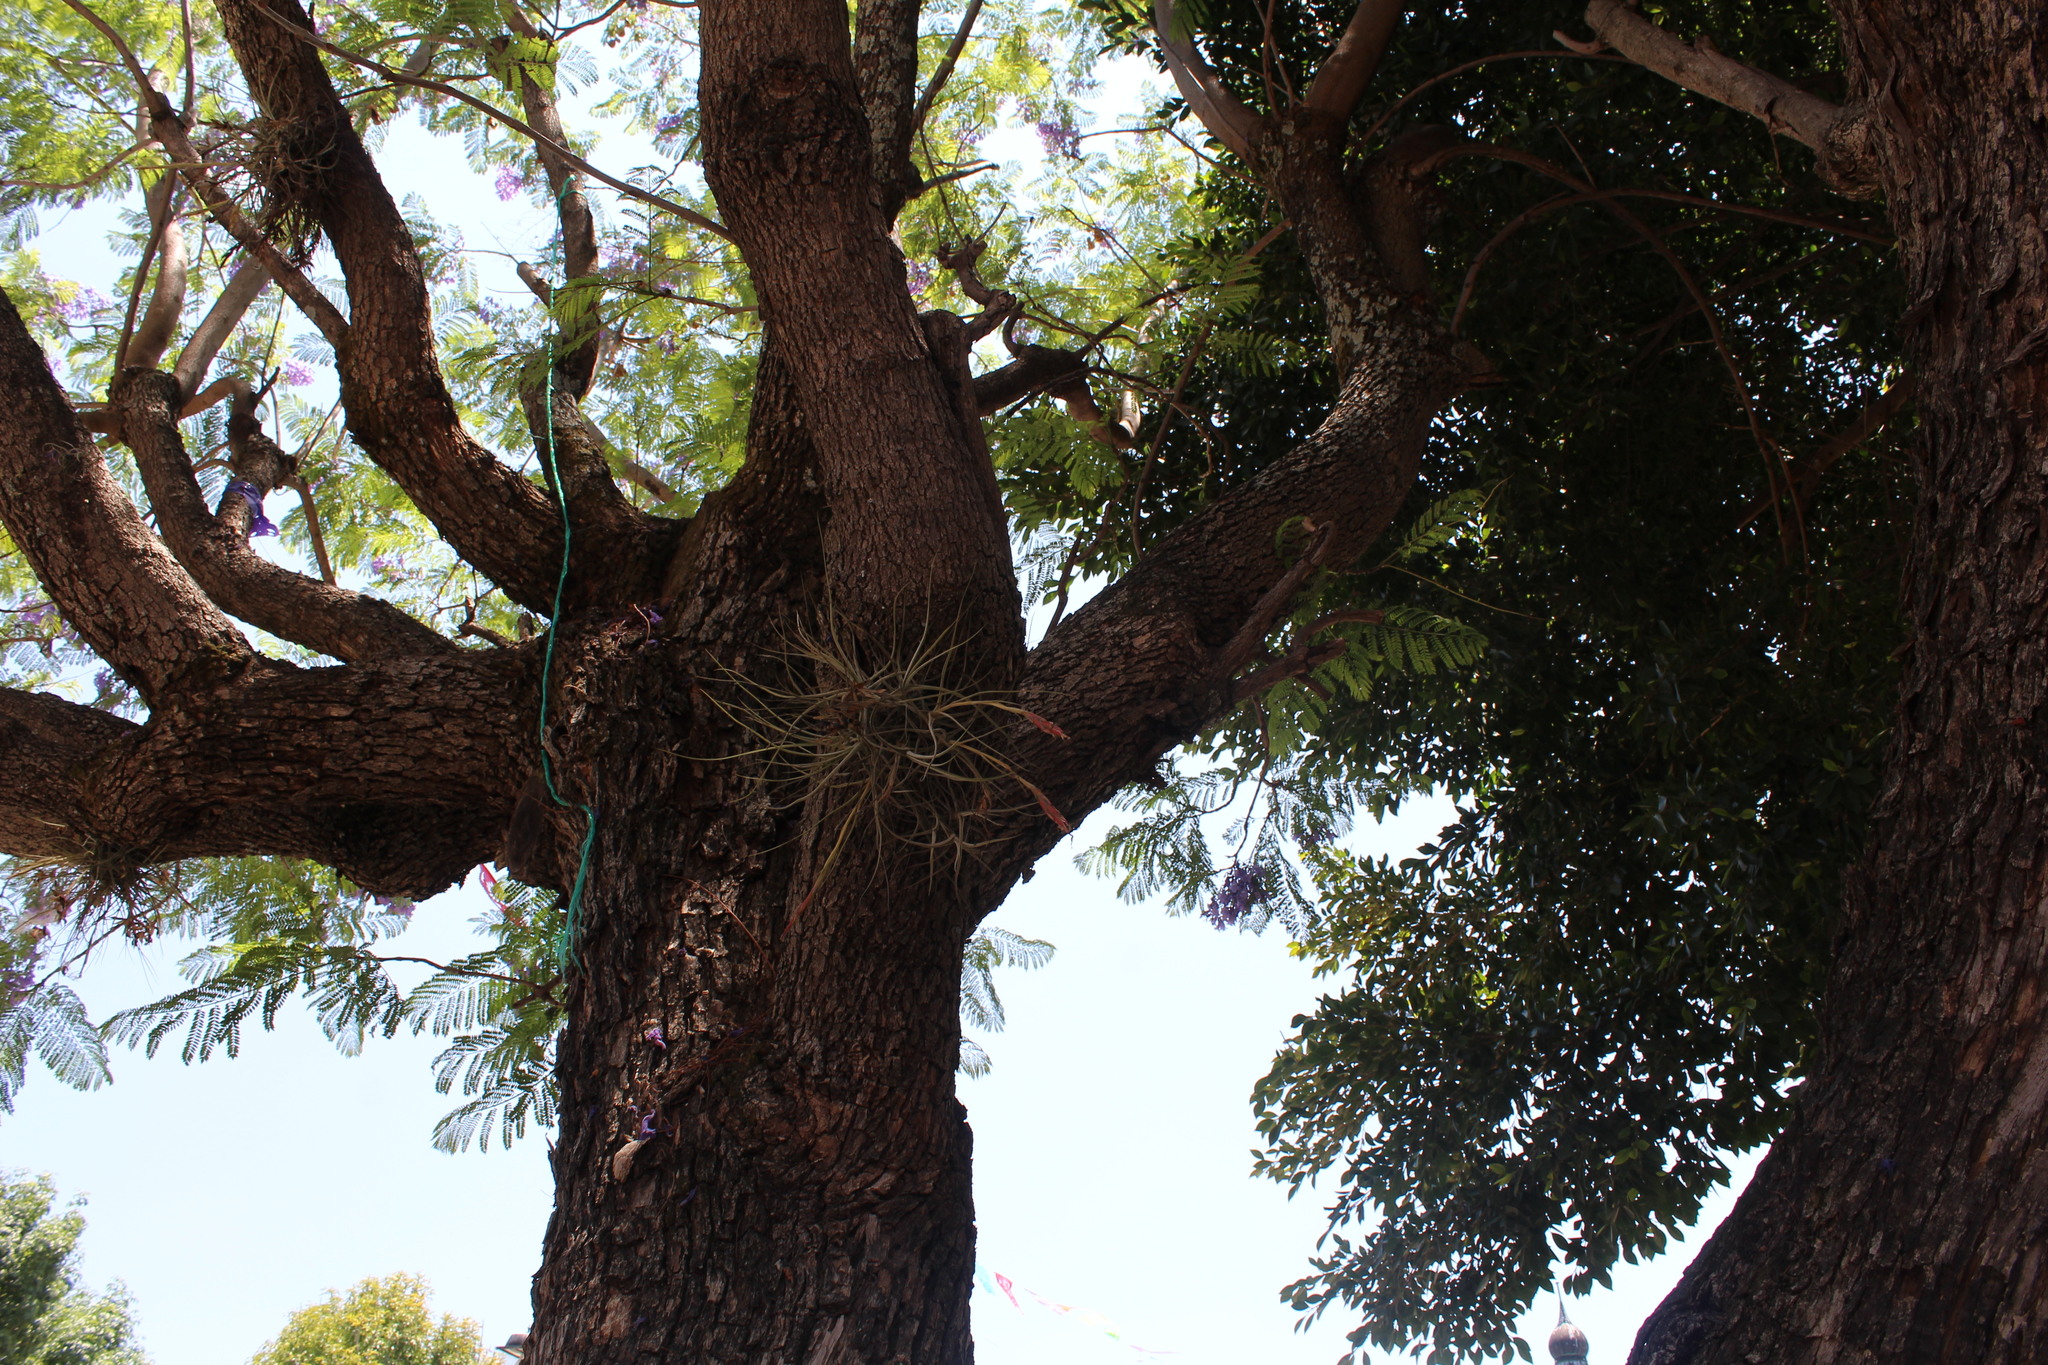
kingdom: Plantae
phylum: Tracheophyta
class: Liliopsida
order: Poales
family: Bromeliaceae
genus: Tillandsia
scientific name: Tillandsia schiedeana
